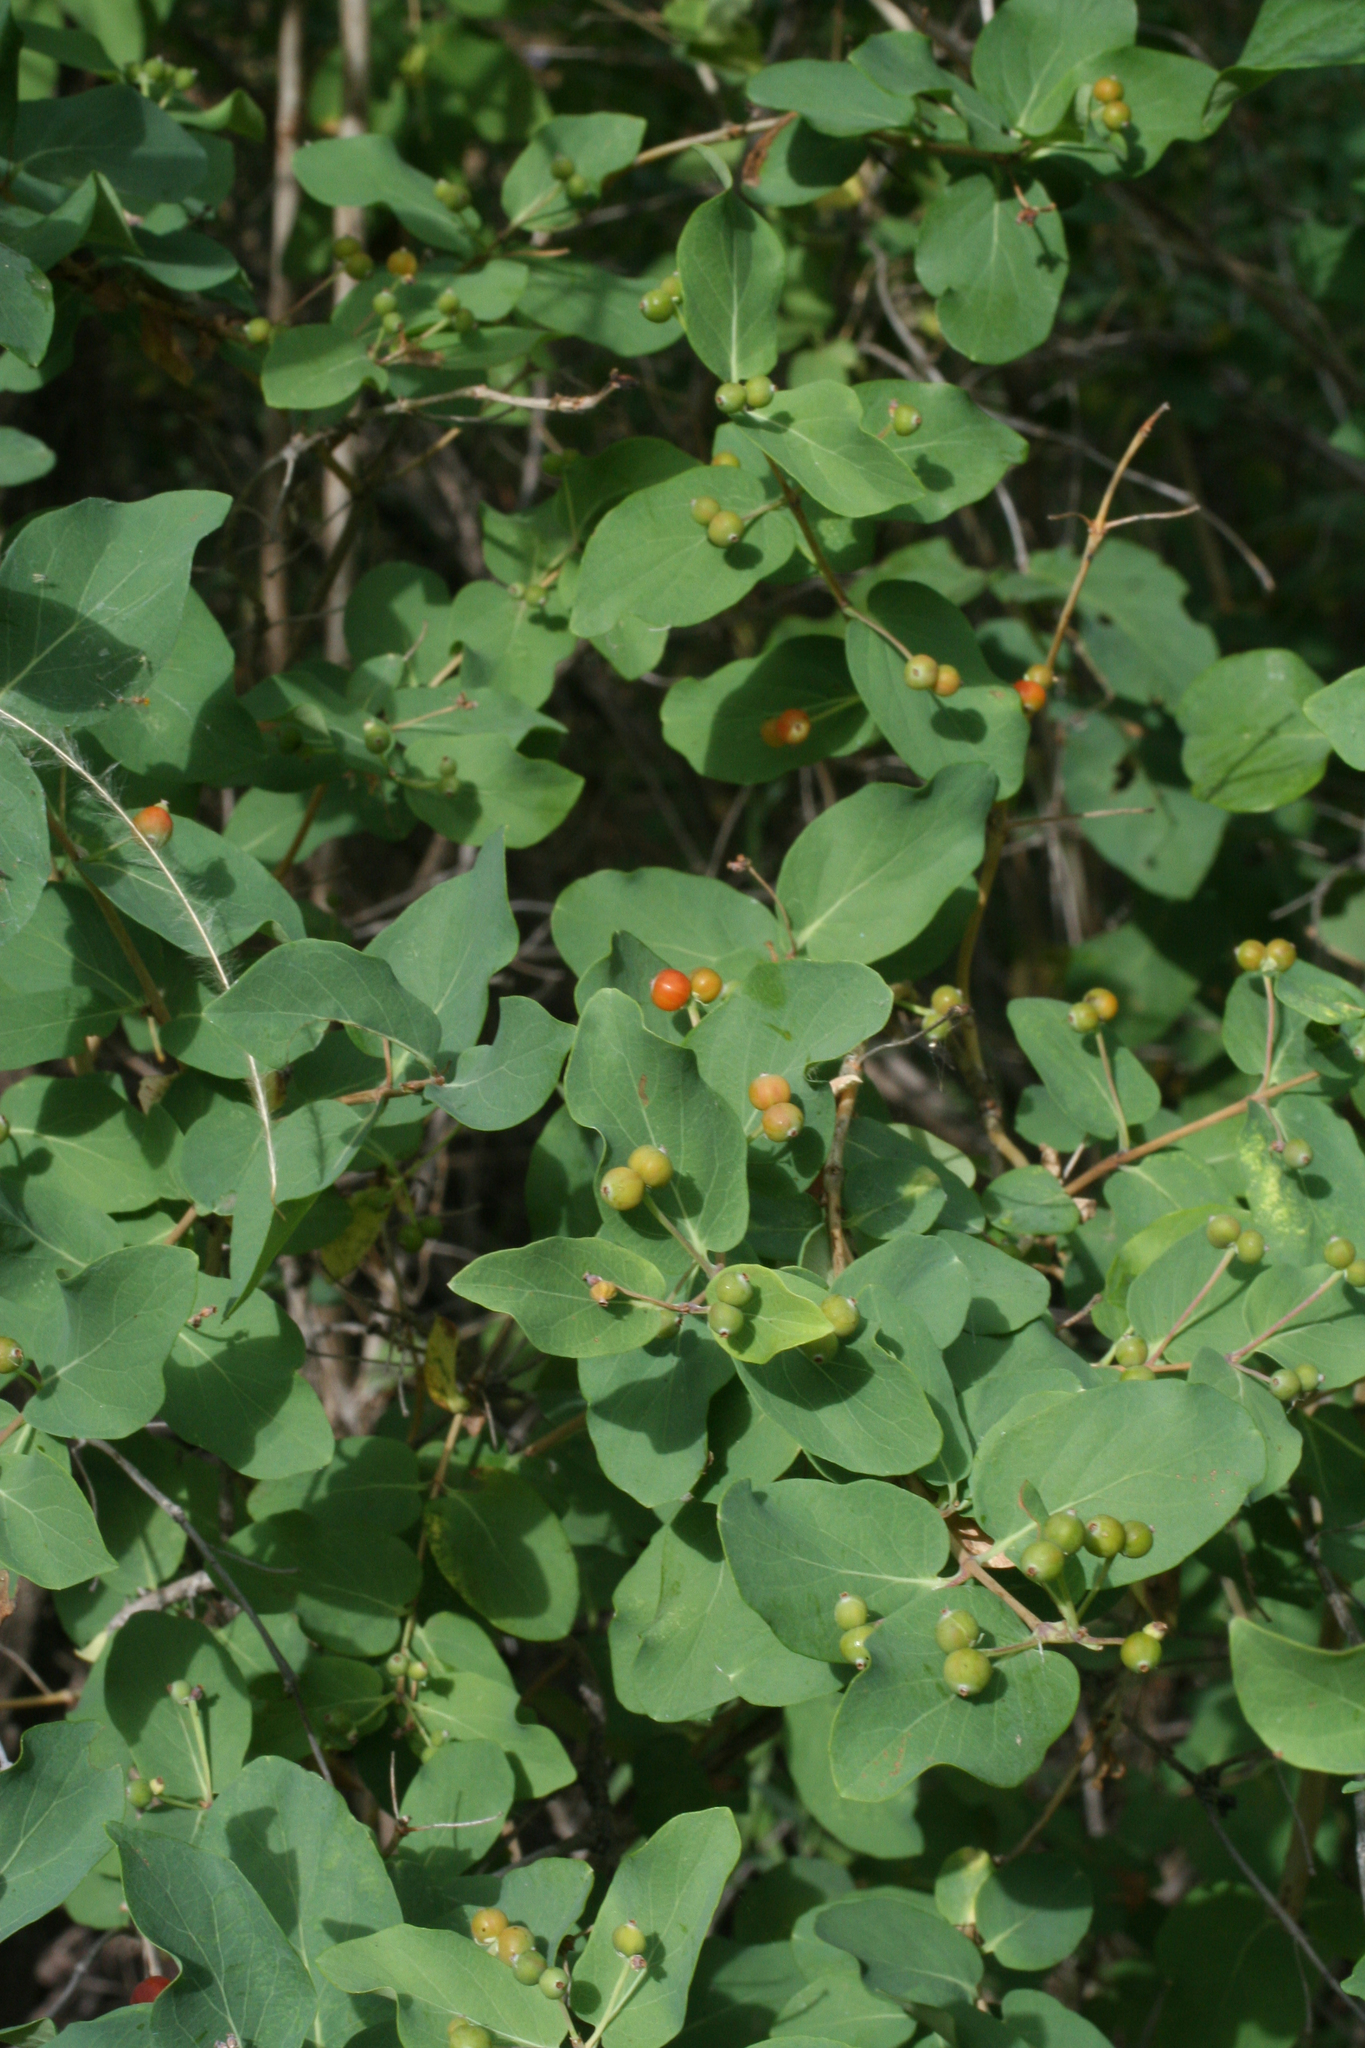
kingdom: Plantae
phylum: Tracheophyta
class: Magnoliopsida
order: Dipsacales
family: Caprifoliaceae
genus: Lonicera
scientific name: Lonicera tatarica
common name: Tatarian honeysuckle
